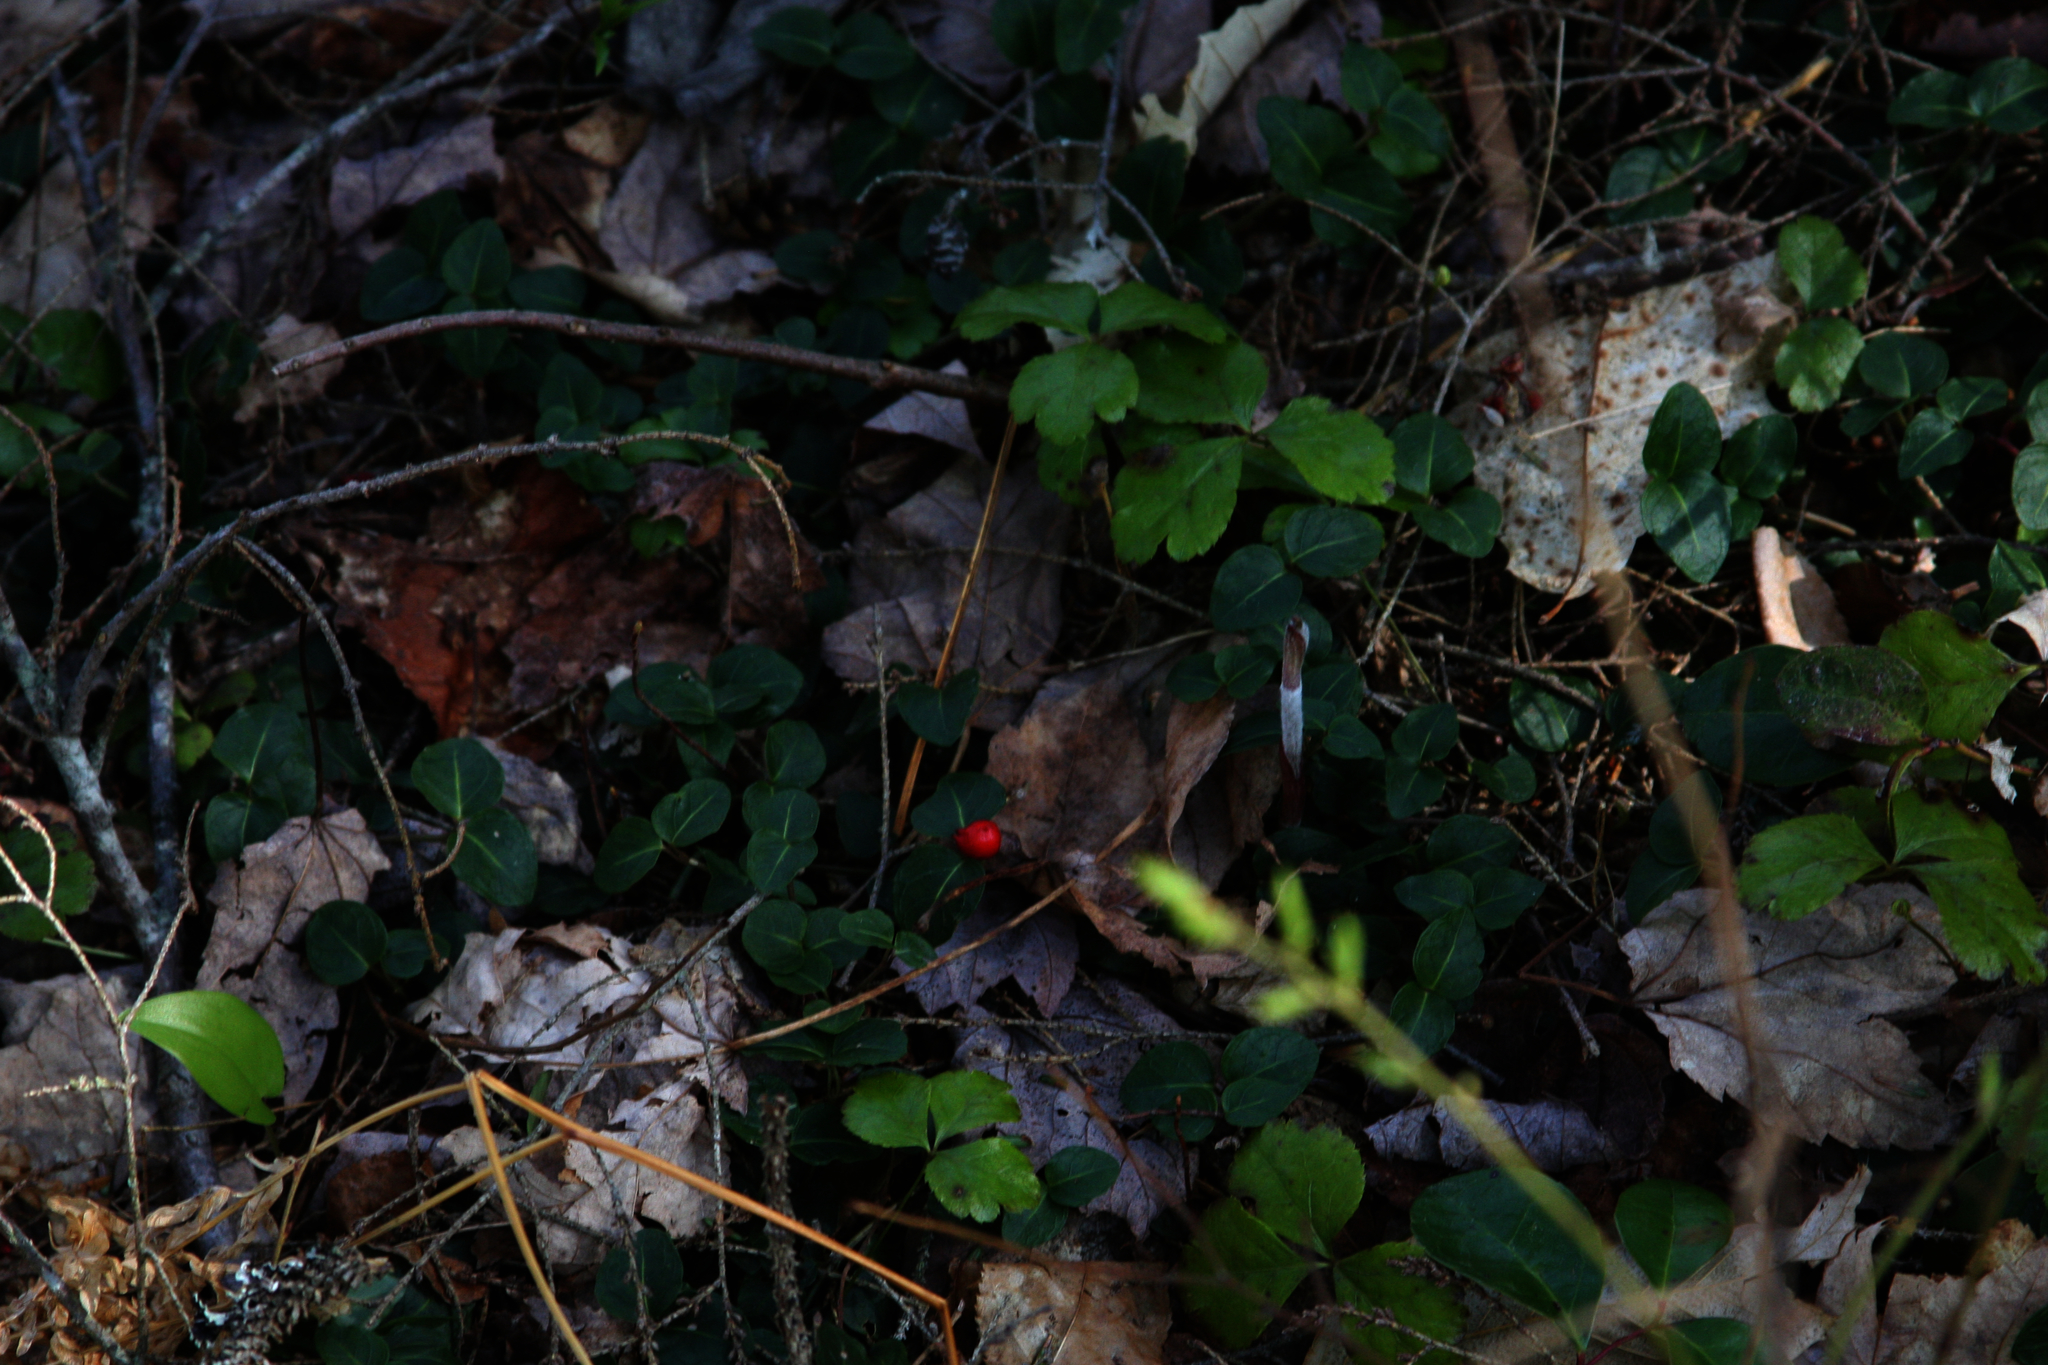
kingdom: Plantae
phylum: Tracheophyta
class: Magnoliopsida
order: Ranunculales
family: Ranunculaceae
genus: Coptis
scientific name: Coptis trifolia
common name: Canker-root
